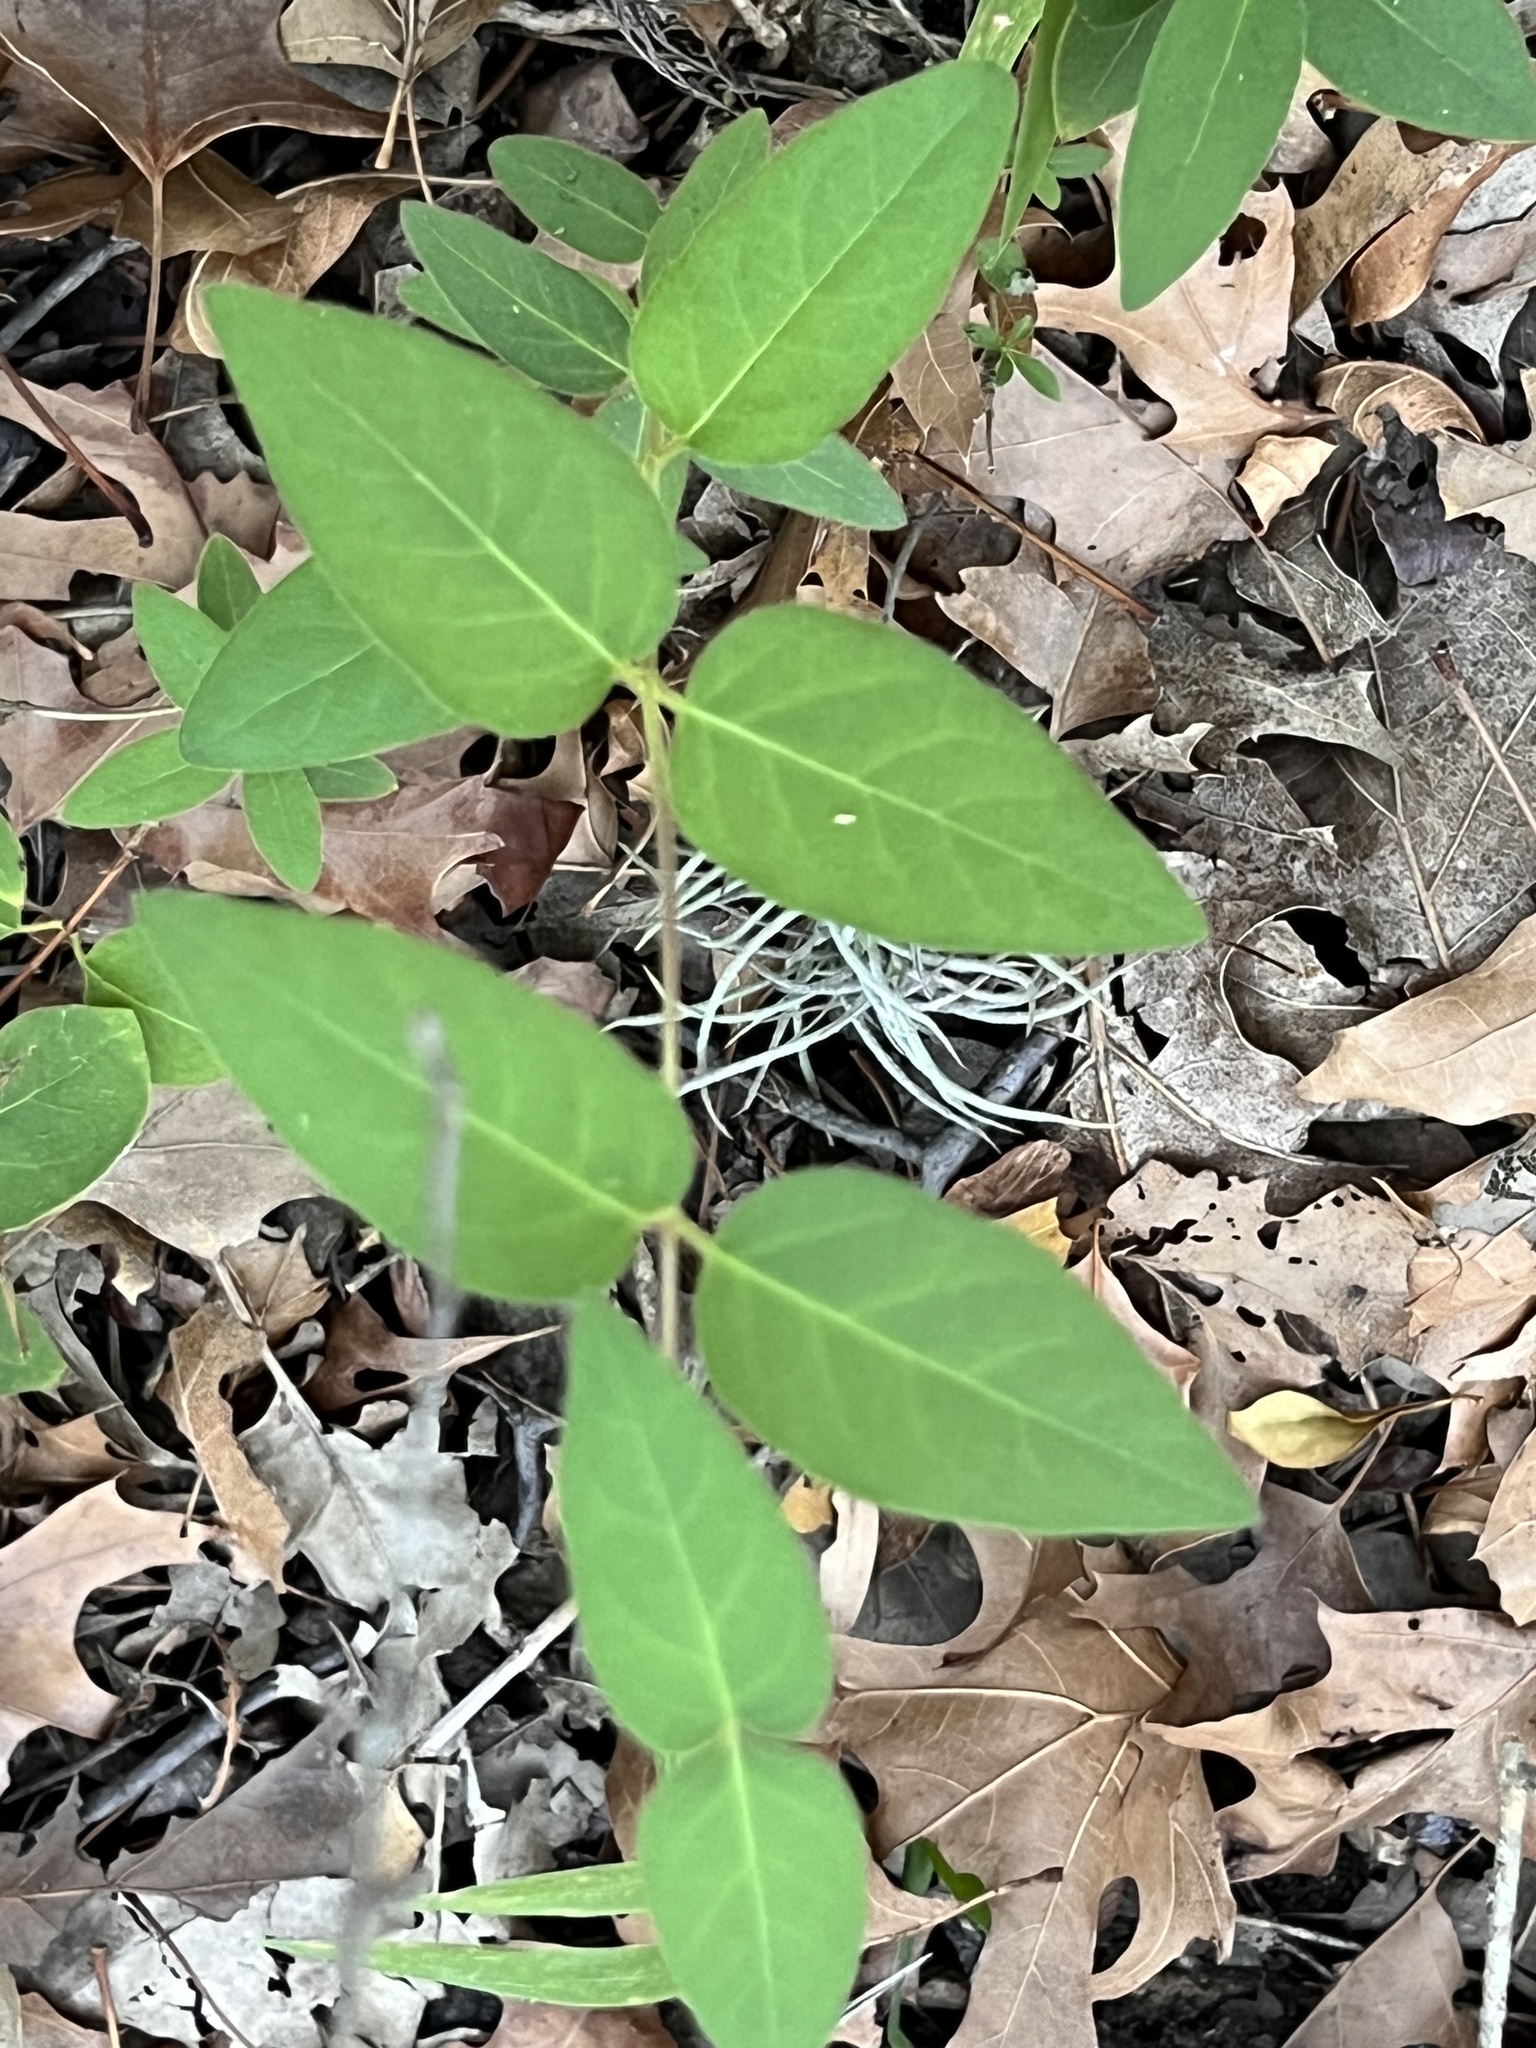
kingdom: Plantae
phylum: Tracheophyta
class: Magnoliopsida
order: Dipsacales
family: Caprifoliaceae
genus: Lonicera
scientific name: Lonicera japonica
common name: Japanese honeysuckle
